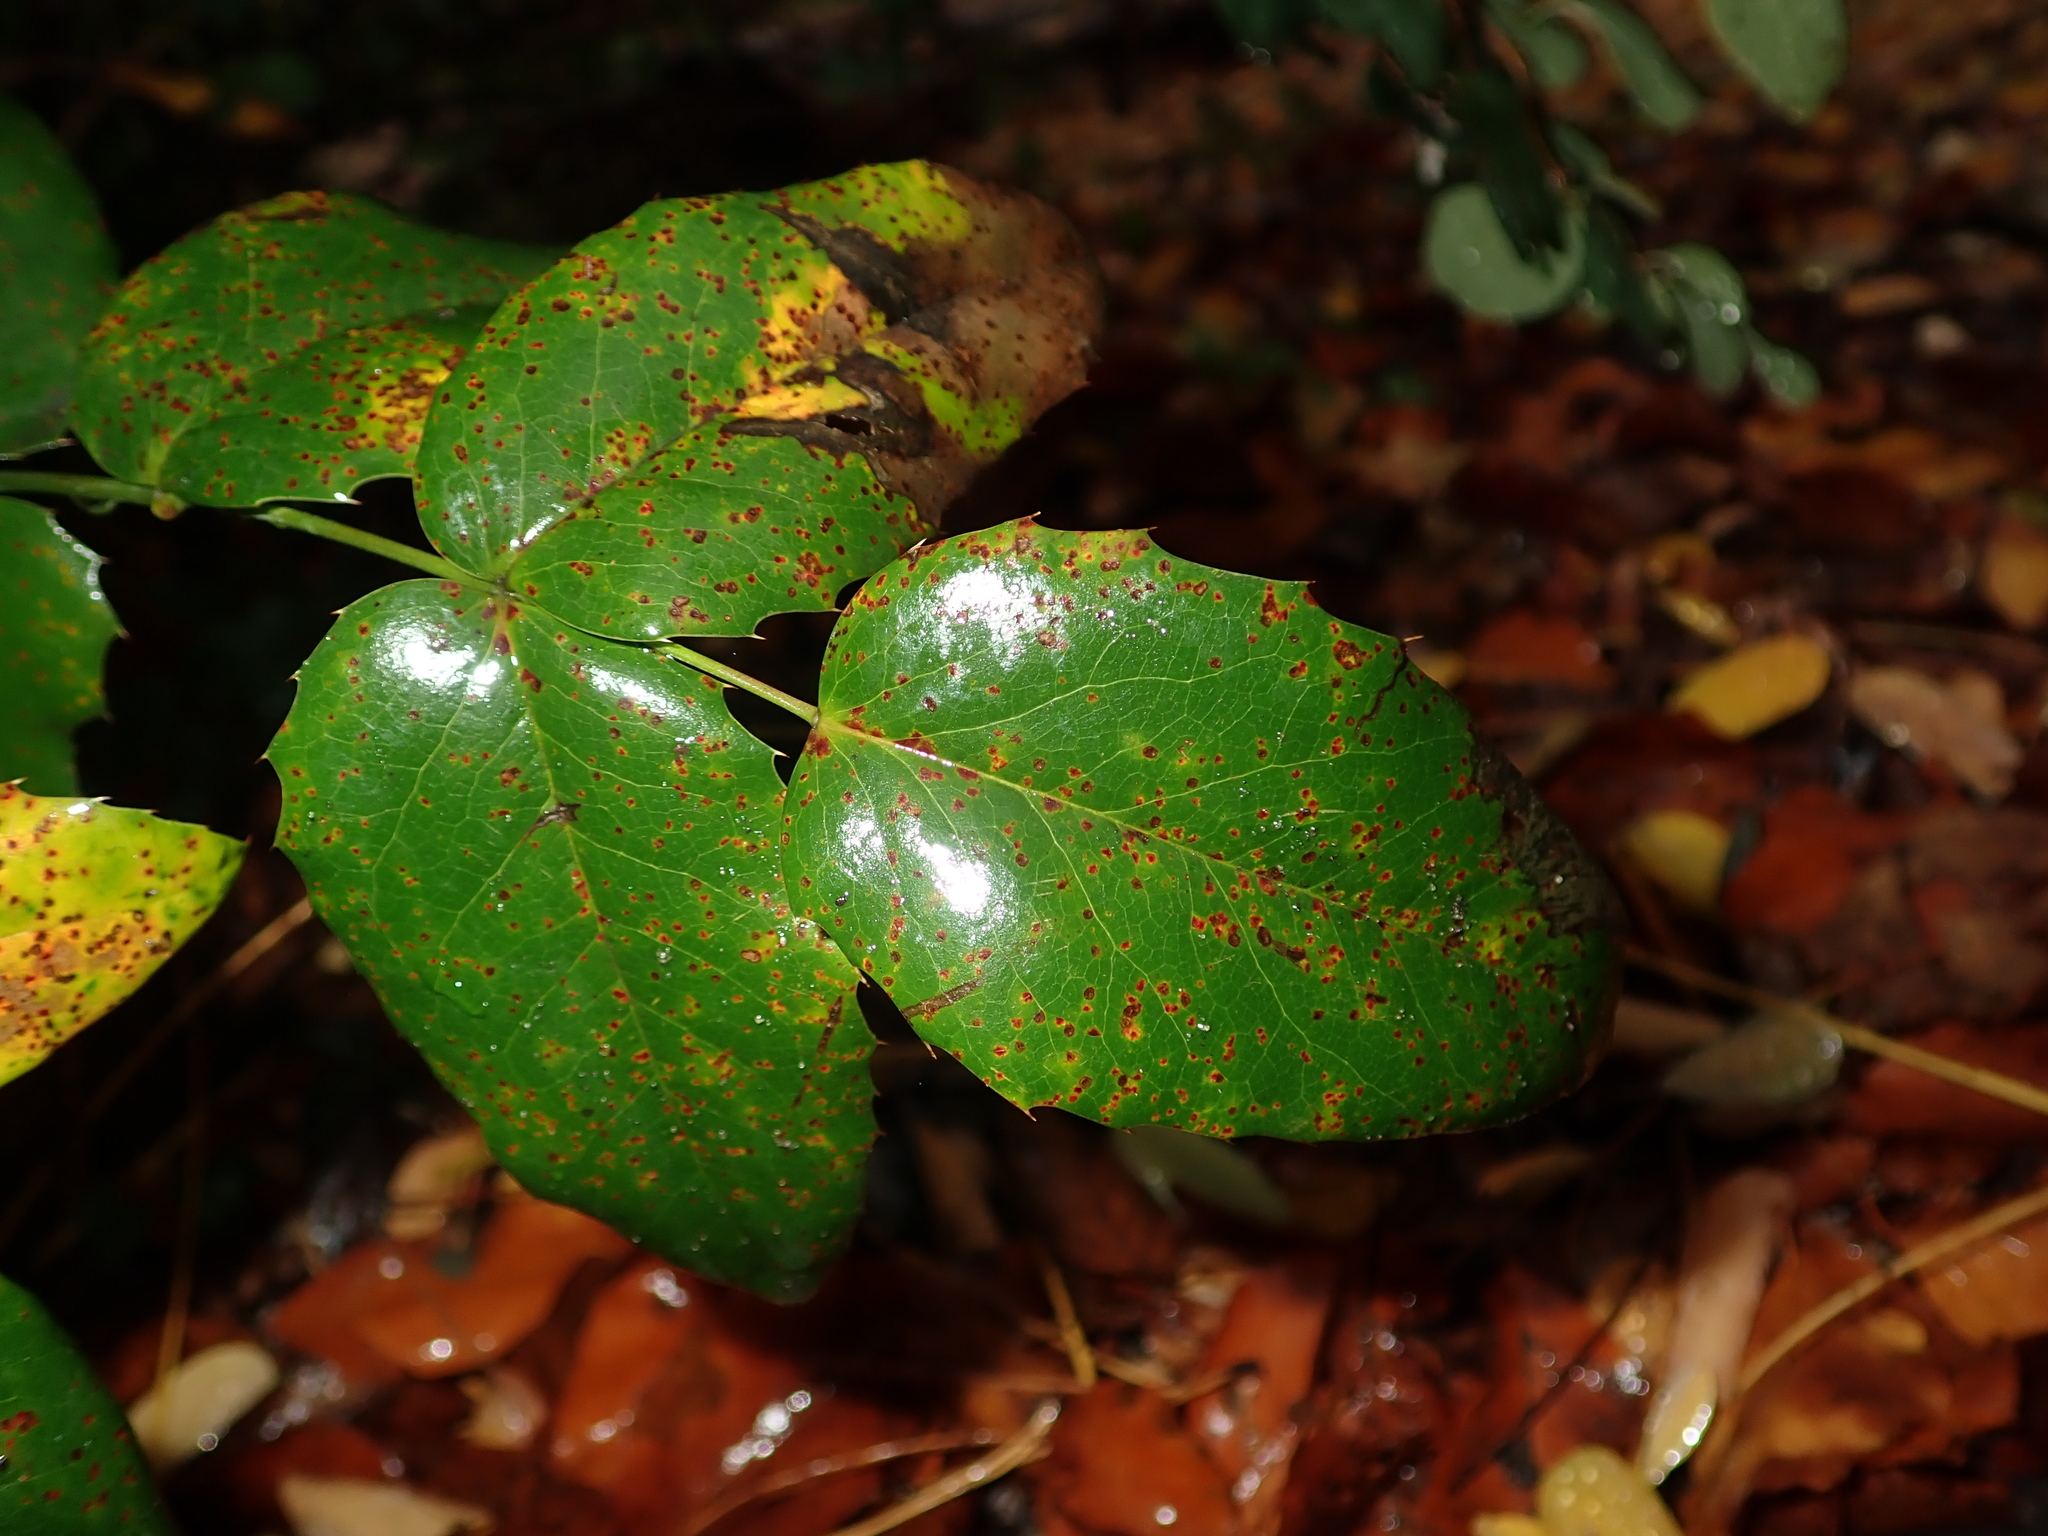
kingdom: Plantae
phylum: Tracheophyta
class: Magnoliopsida
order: Ranunculales
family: Berberidaceae
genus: Mahonia
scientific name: Mahonia aquifolium
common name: Oregon-grape
